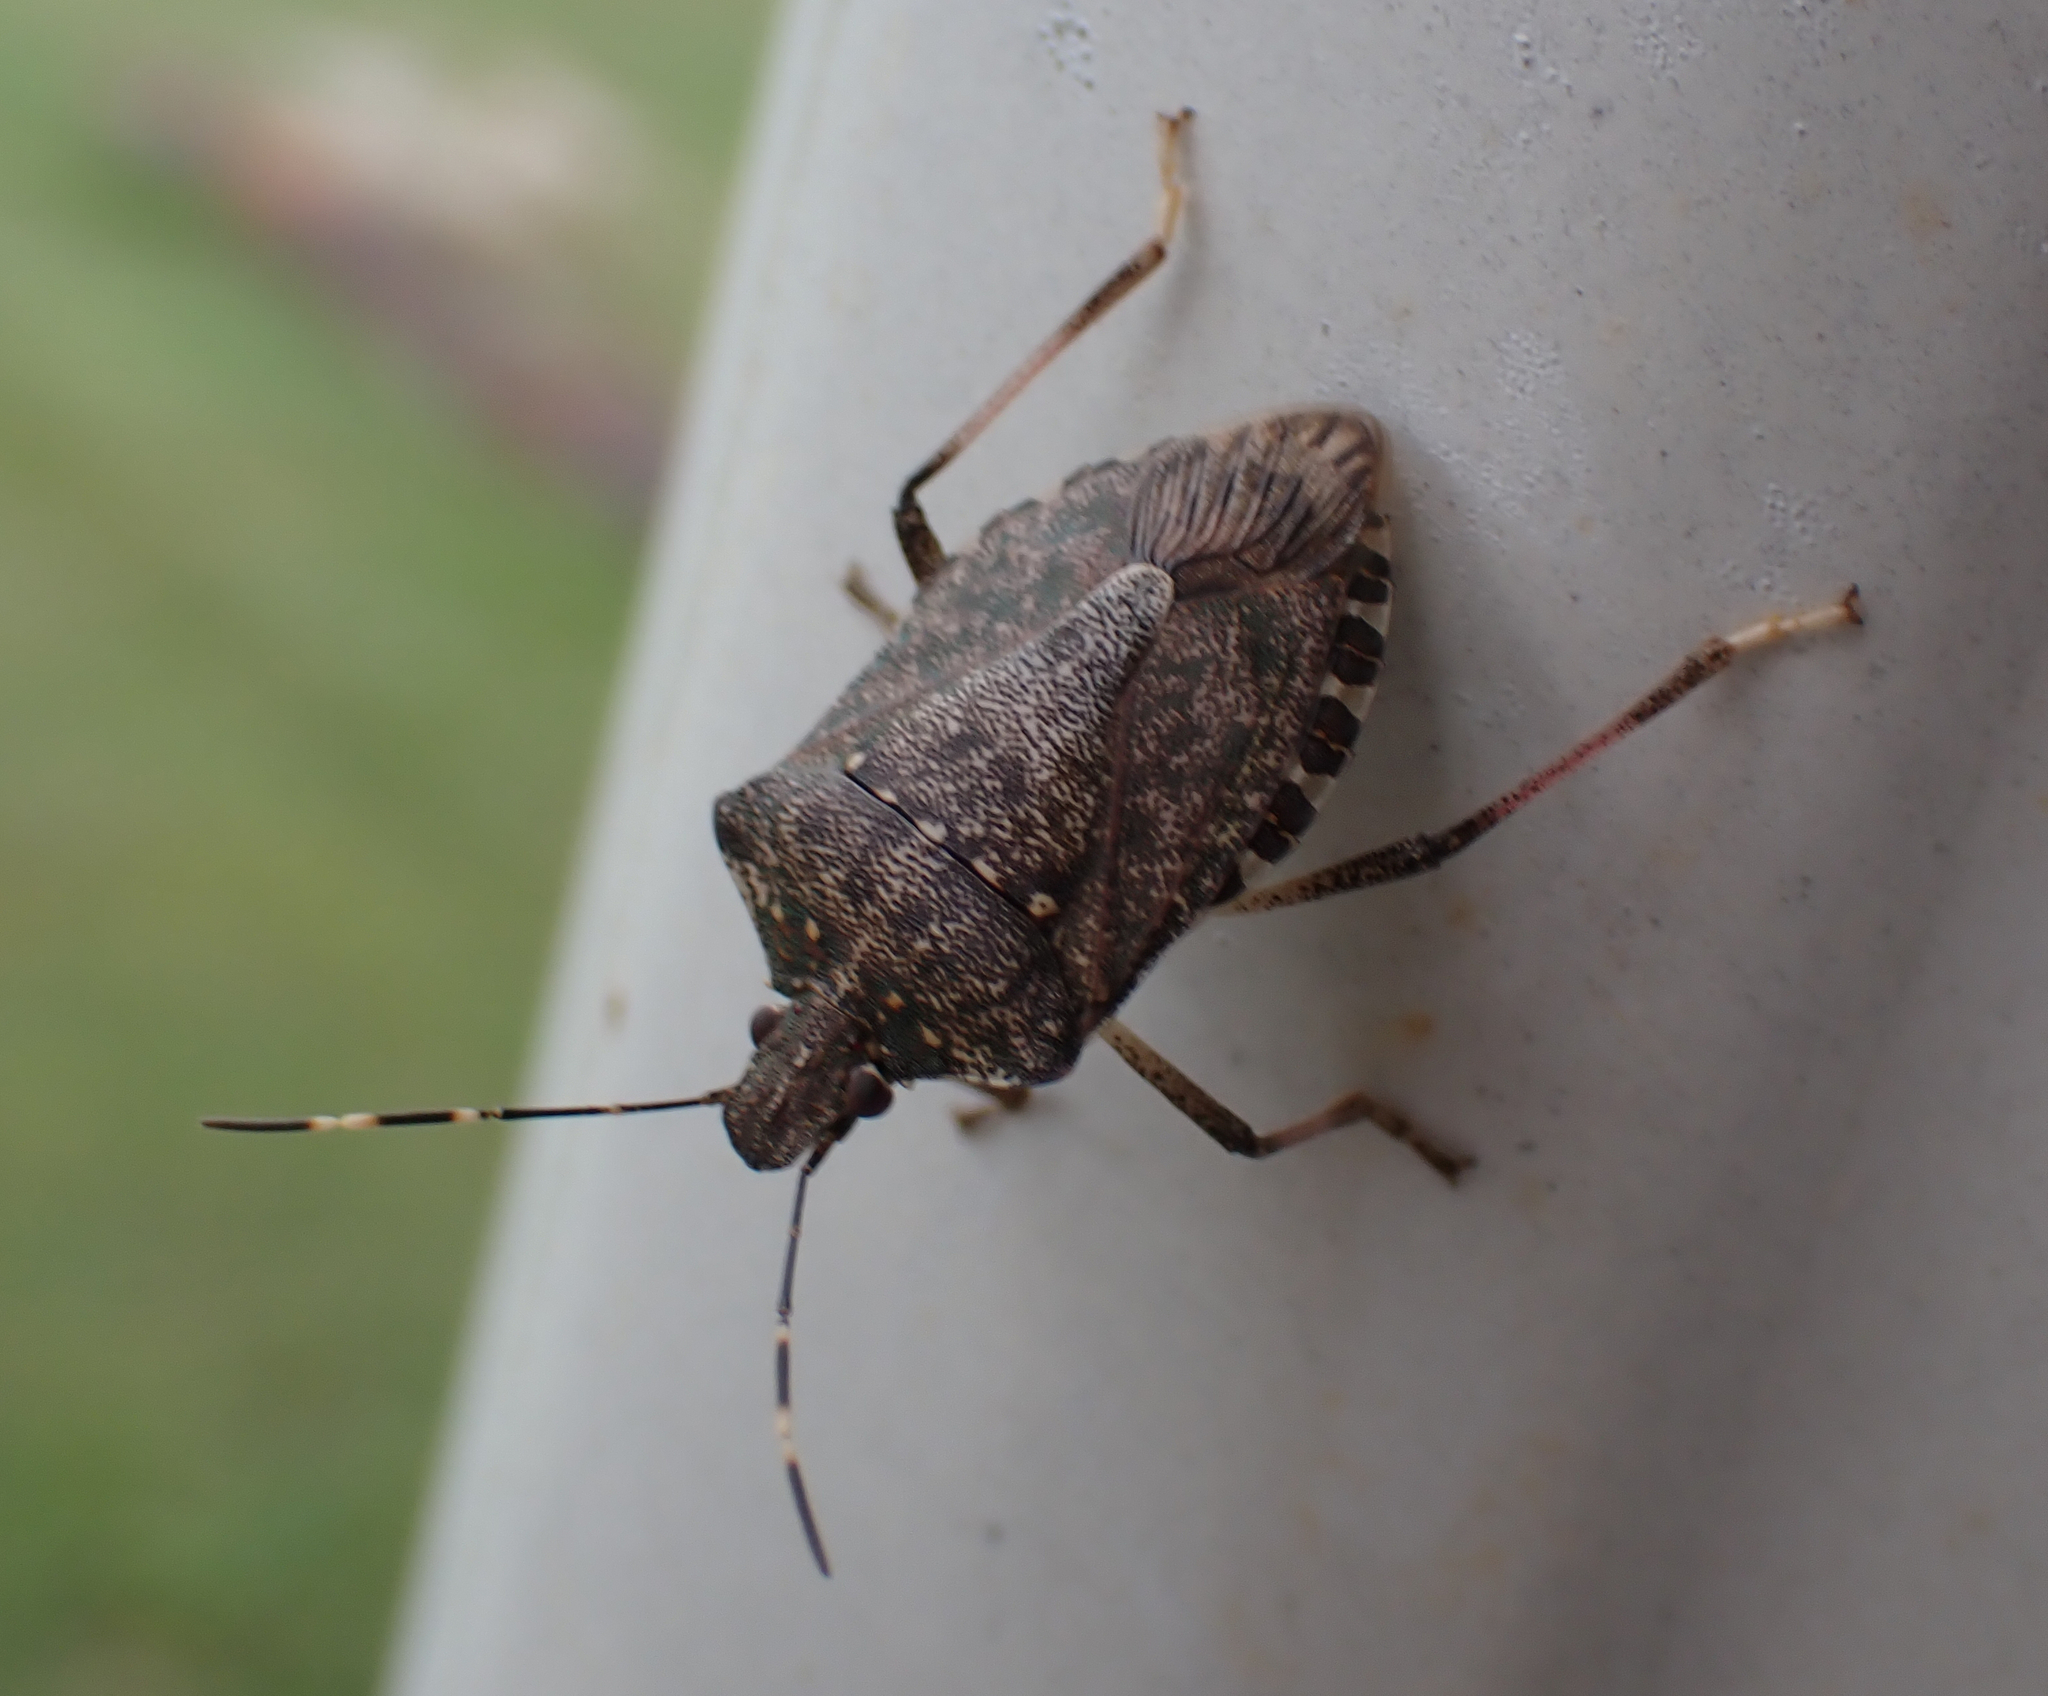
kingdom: Animalia
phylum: Arthropoda
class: Insecta
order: Hemiptera
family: Pentatomidae
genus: Halyomorpha
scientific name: Halyomorpha halys
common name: Brown marmorated stink bug
